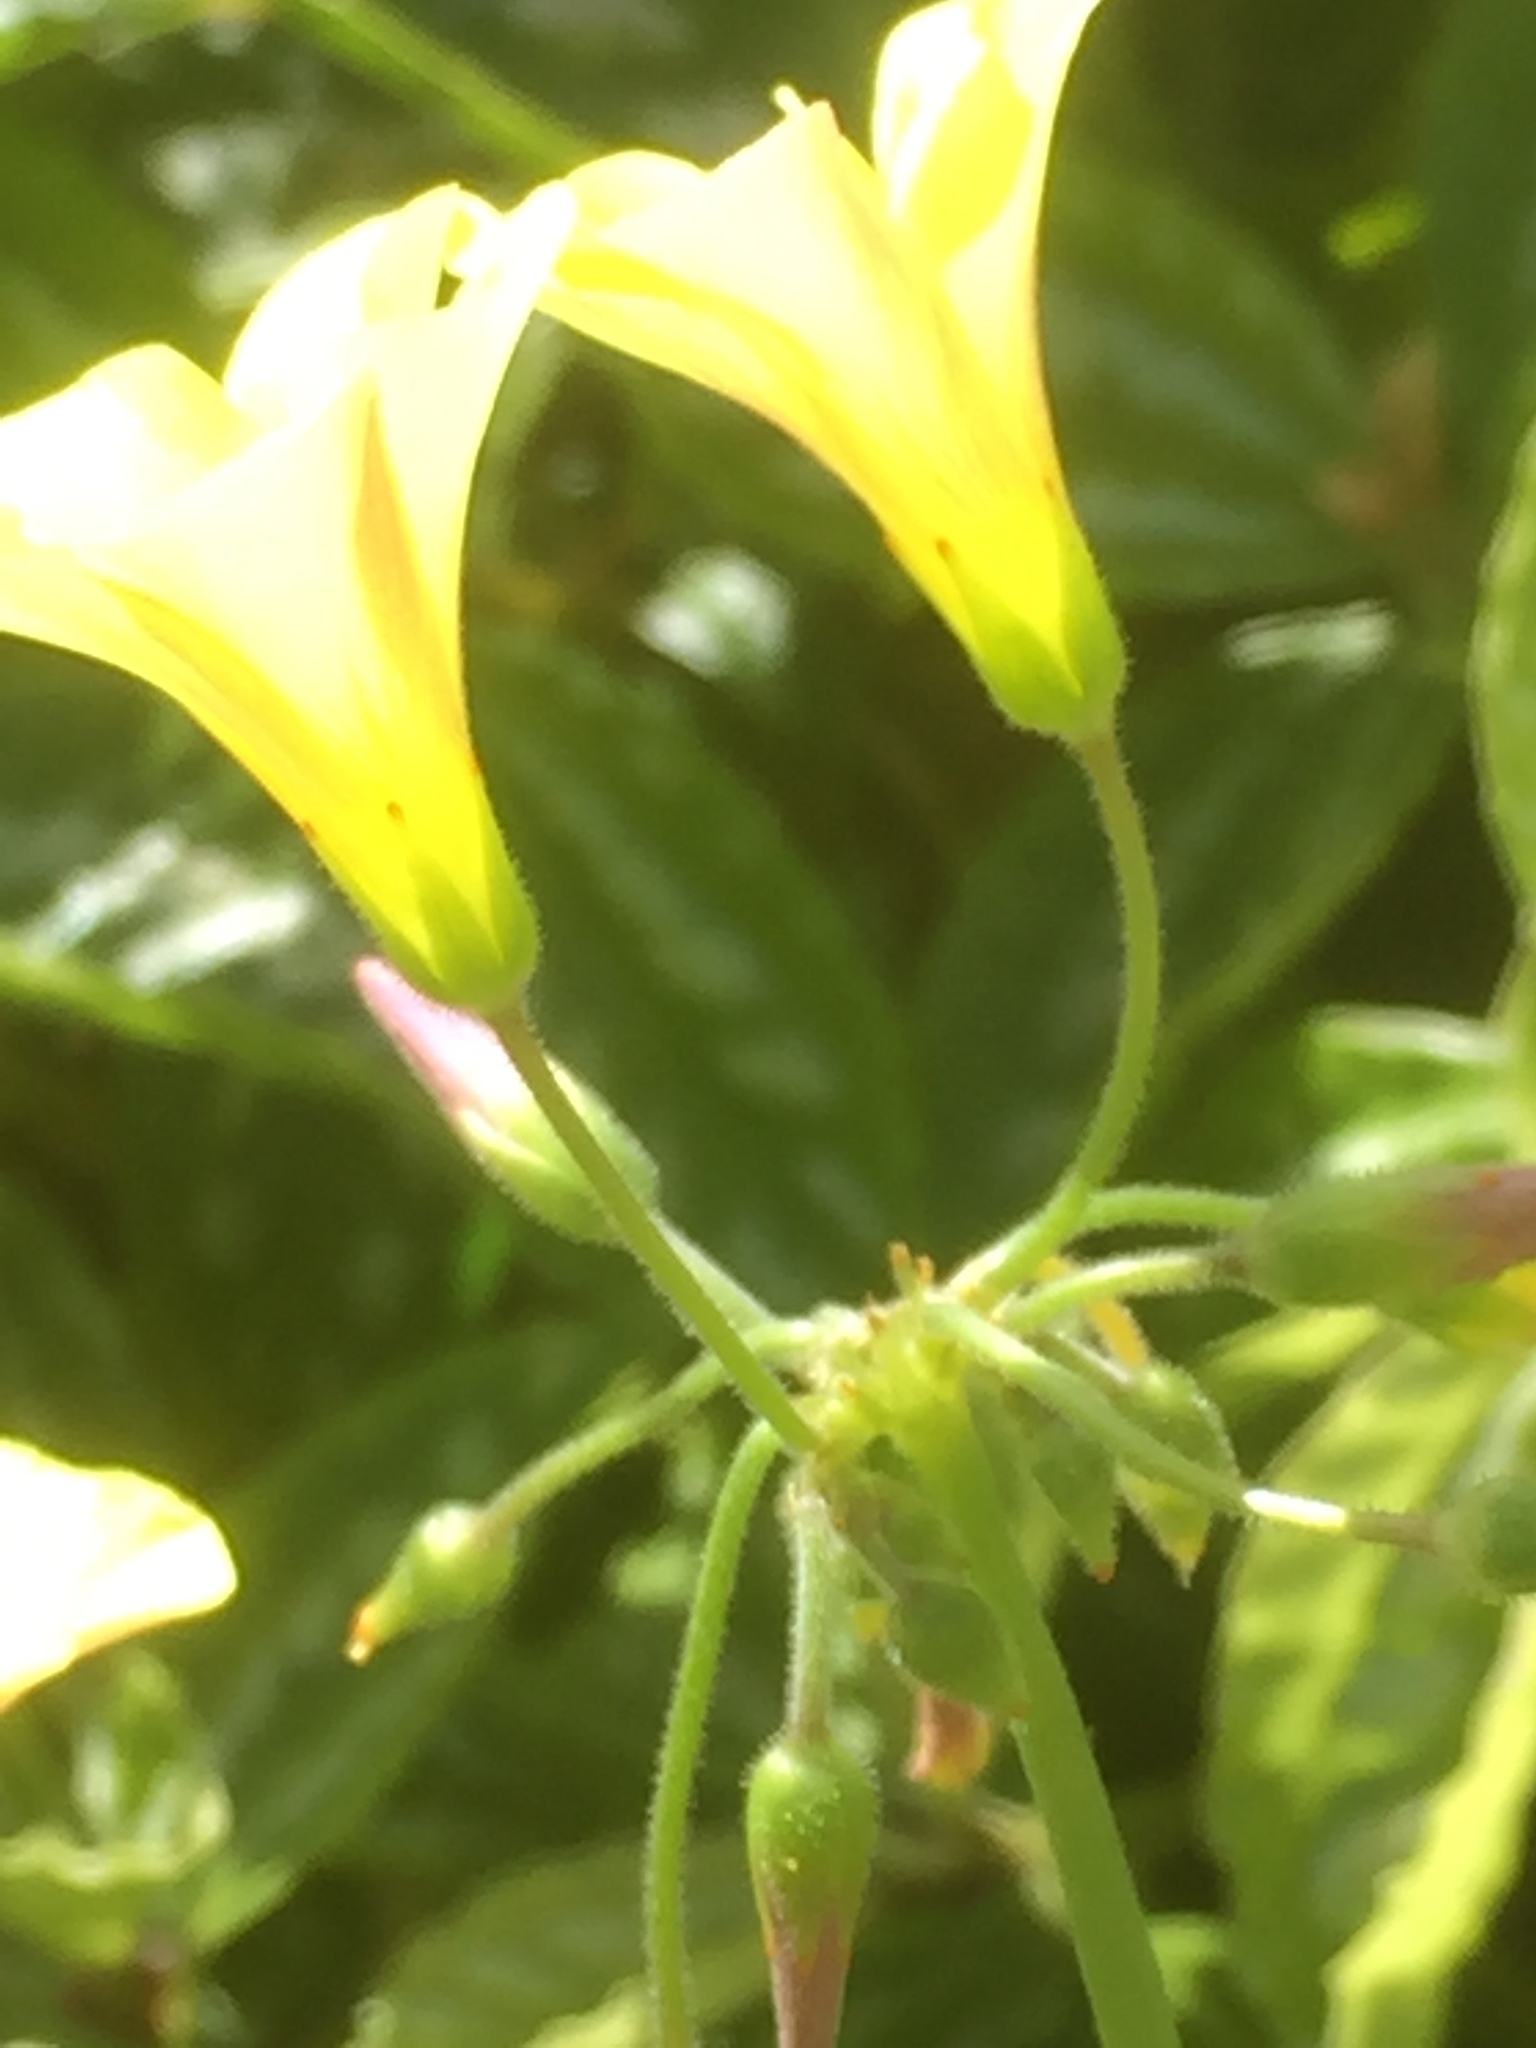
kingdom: Plantae
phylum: Tracheophyta
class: Magnoliopsida
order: Oxalidales
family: Oxalidaceae
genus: Oxalis
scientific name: Oxalis pes-caprae
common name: Bermuda-buttercup
